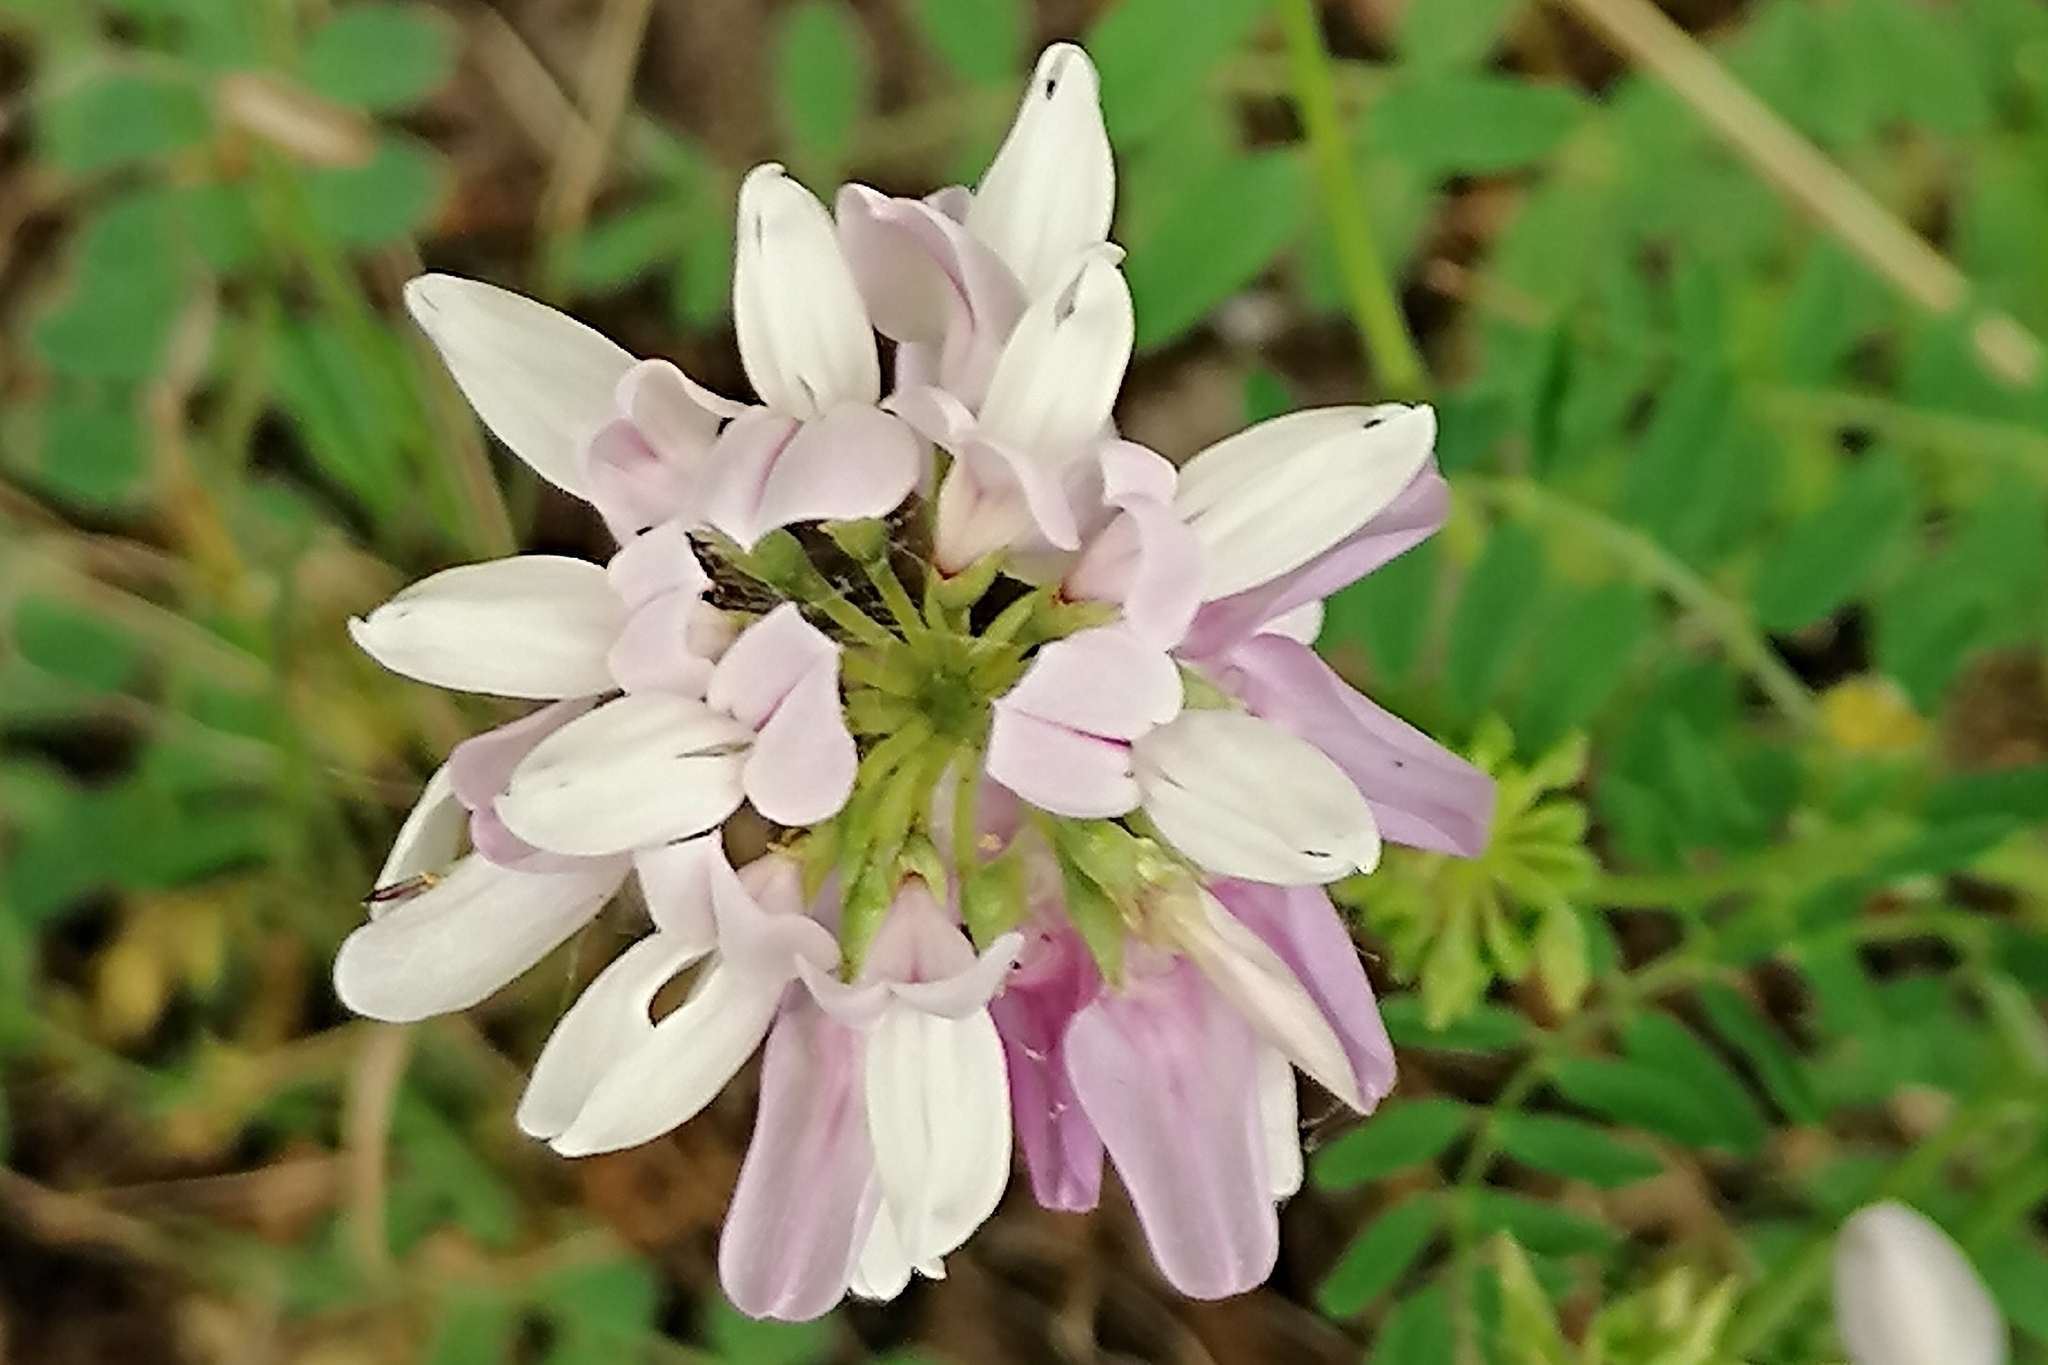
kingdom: Plantae
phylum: Tracheophyta
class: Magnoliopsida
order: Fabales
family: Fabaceae
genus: Coronilla
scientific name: Coronilla varia
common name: Crownvetch
